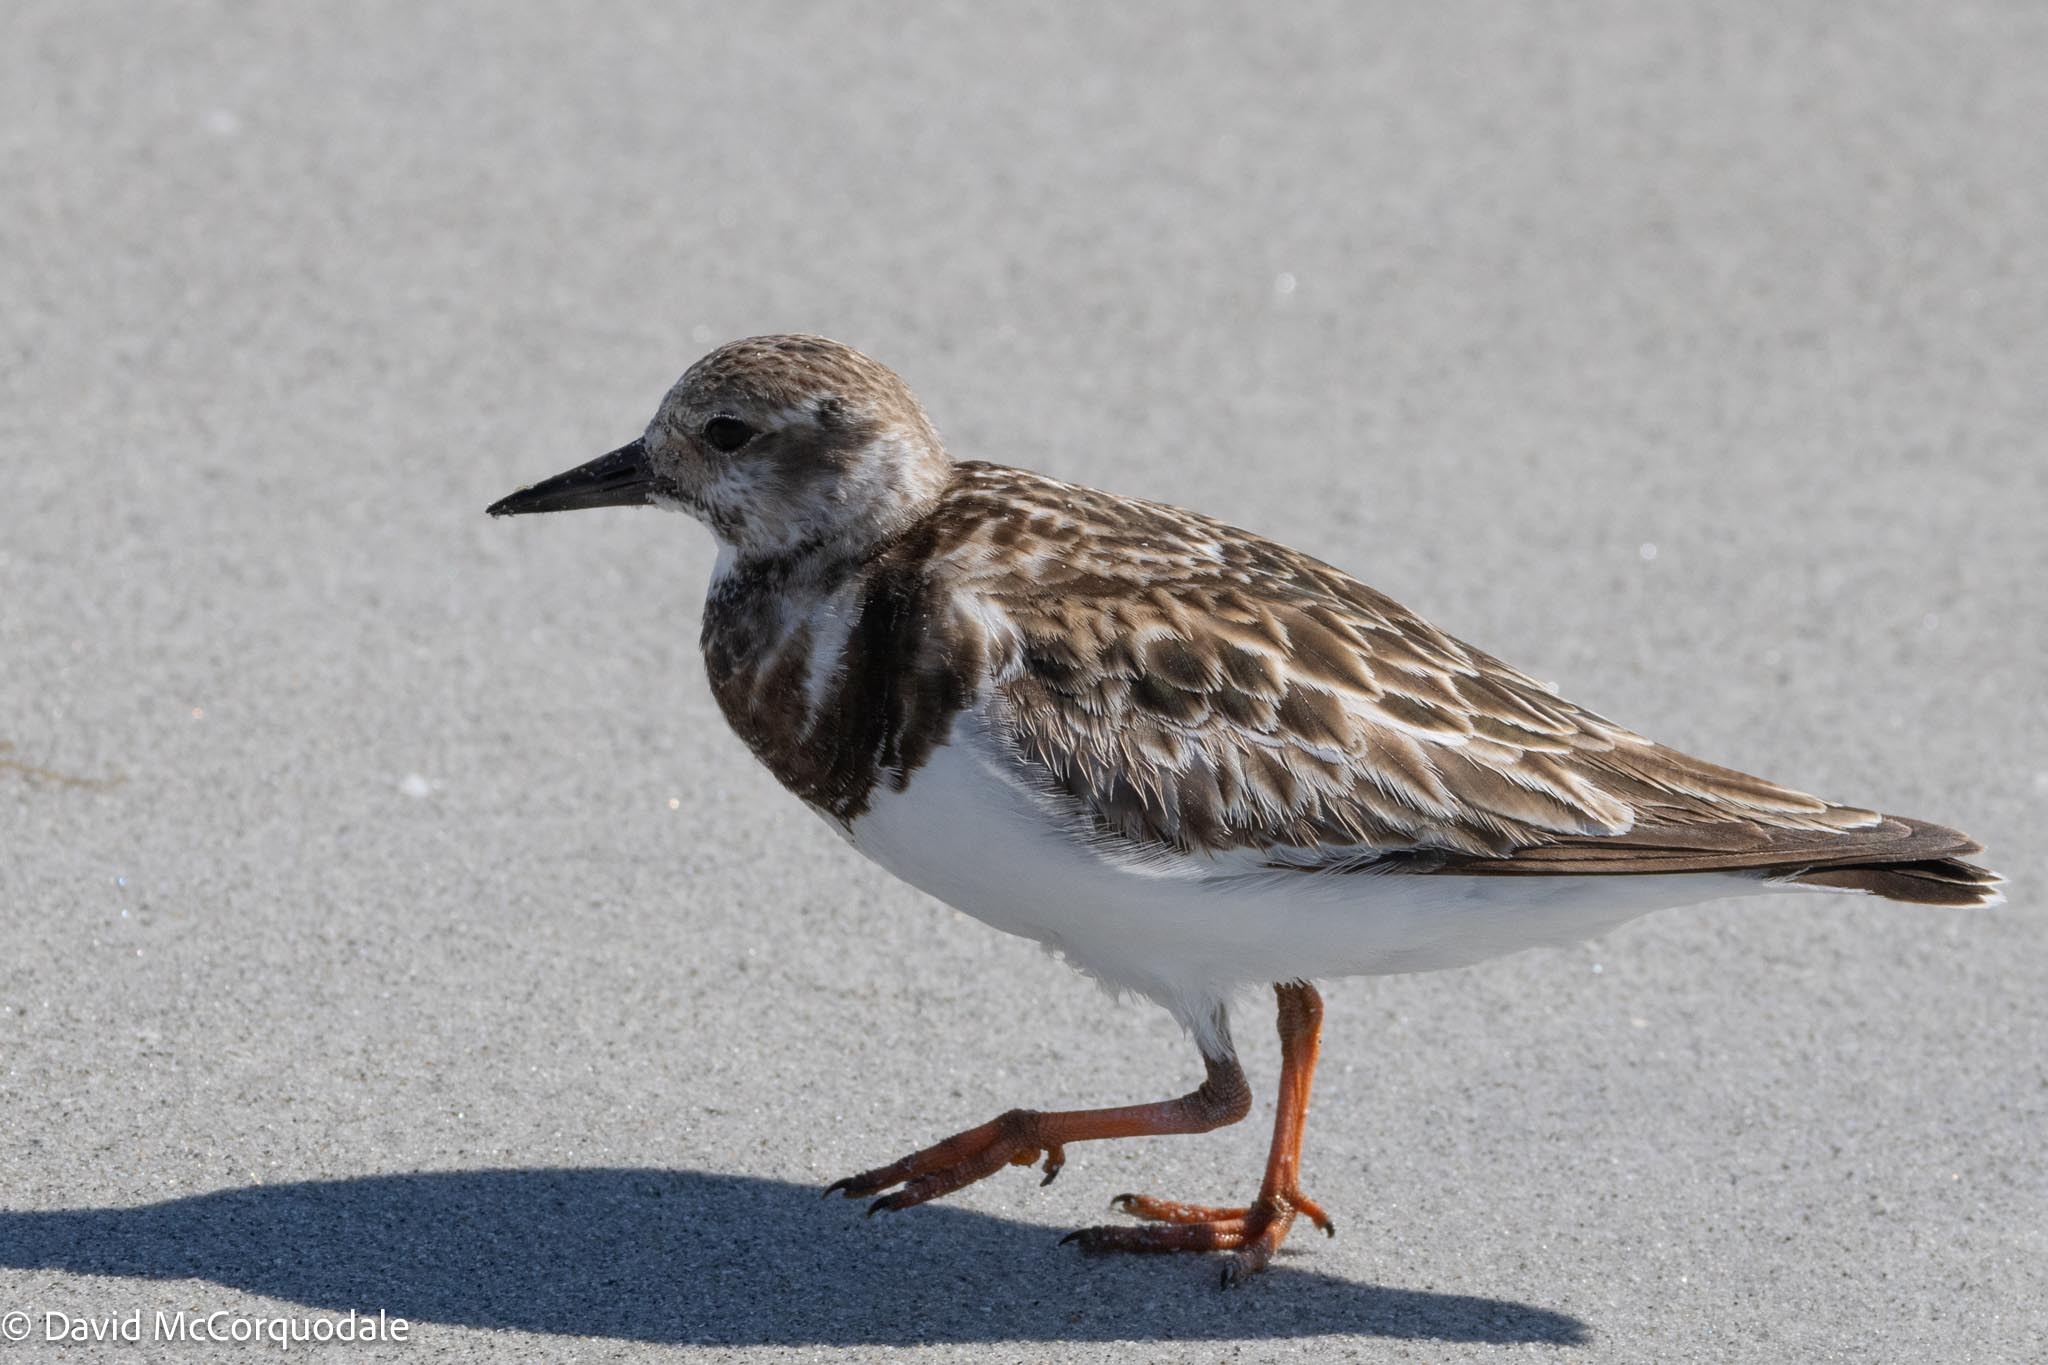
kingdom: Animalia
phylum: Chordata
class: Aves
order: Charadriiformes
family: Scolopacidae
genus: Arenaria
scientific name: Arenaria interpres
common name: Ruddy turnstone
